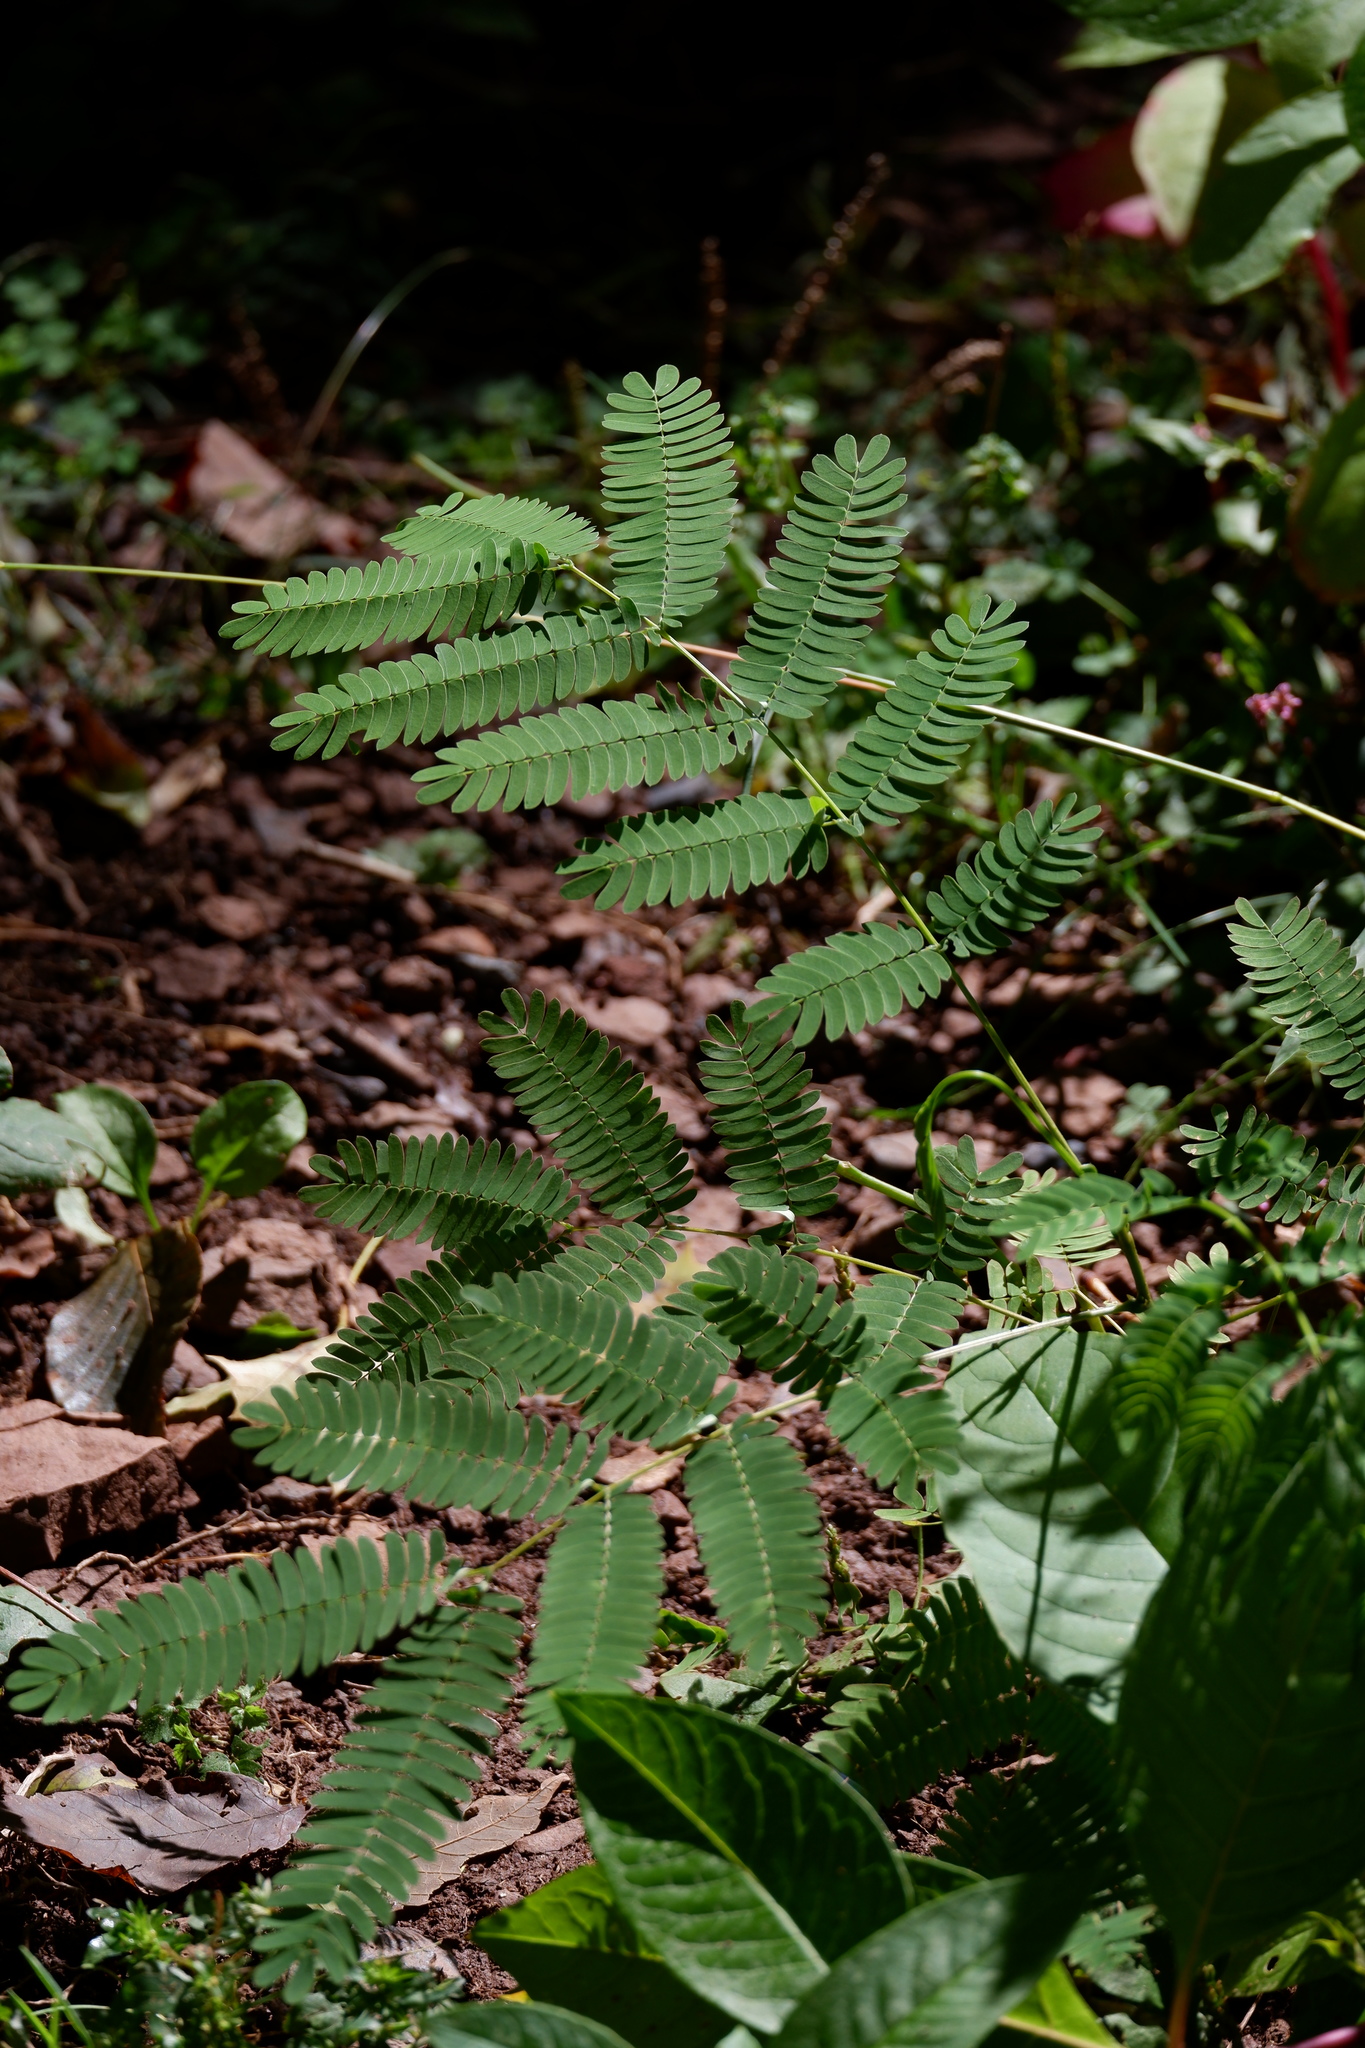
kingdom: Plantae
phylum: Tracheophyta
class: Magnoliopsida
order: Fabales
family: Fabaceae
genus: Albizia
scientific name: Albizia julibrissin
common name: Silktree
